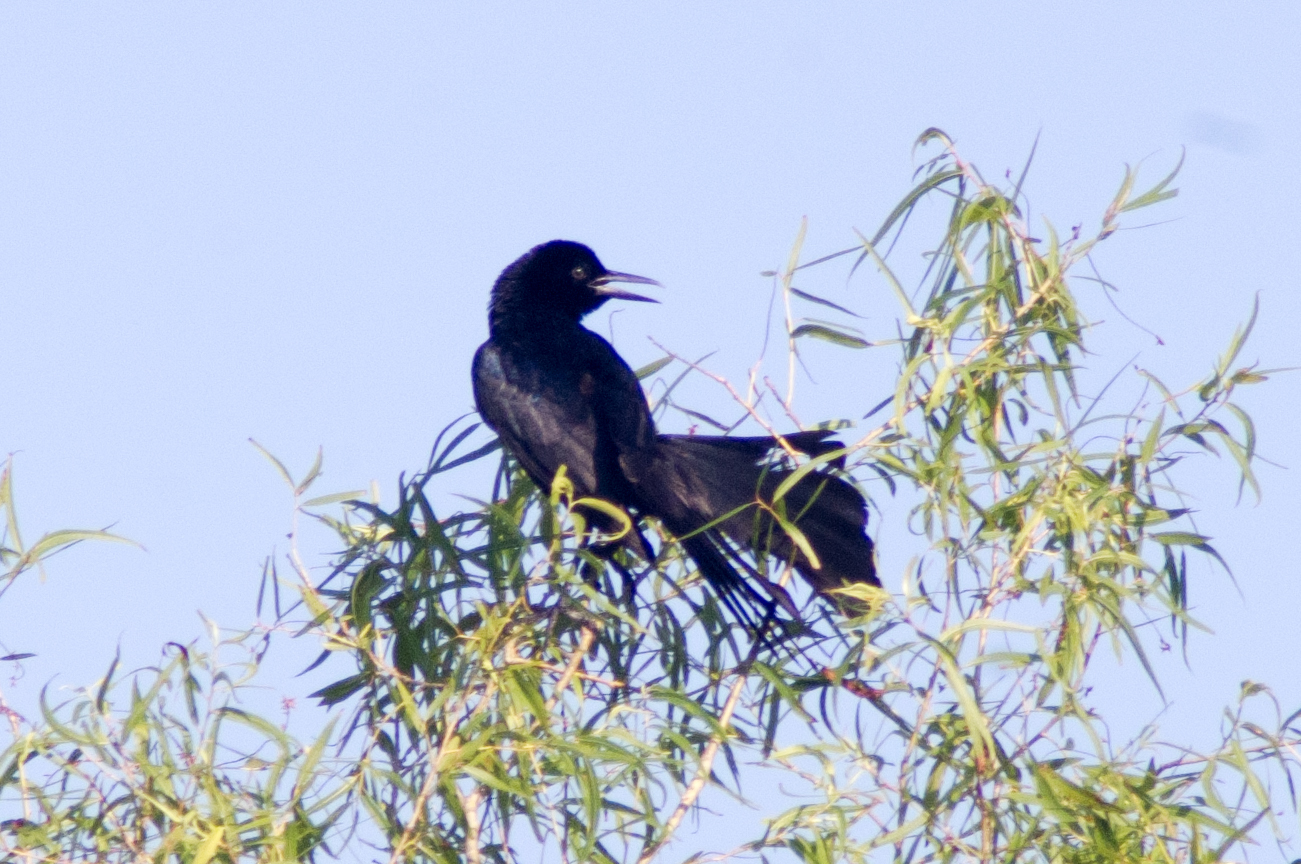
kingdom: Animalia
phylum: Chordata
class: Aves
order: Passeriformes
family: Icteridae
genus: Quiscalus
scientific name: Quiscalus major
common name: Boat-tailed grackle
